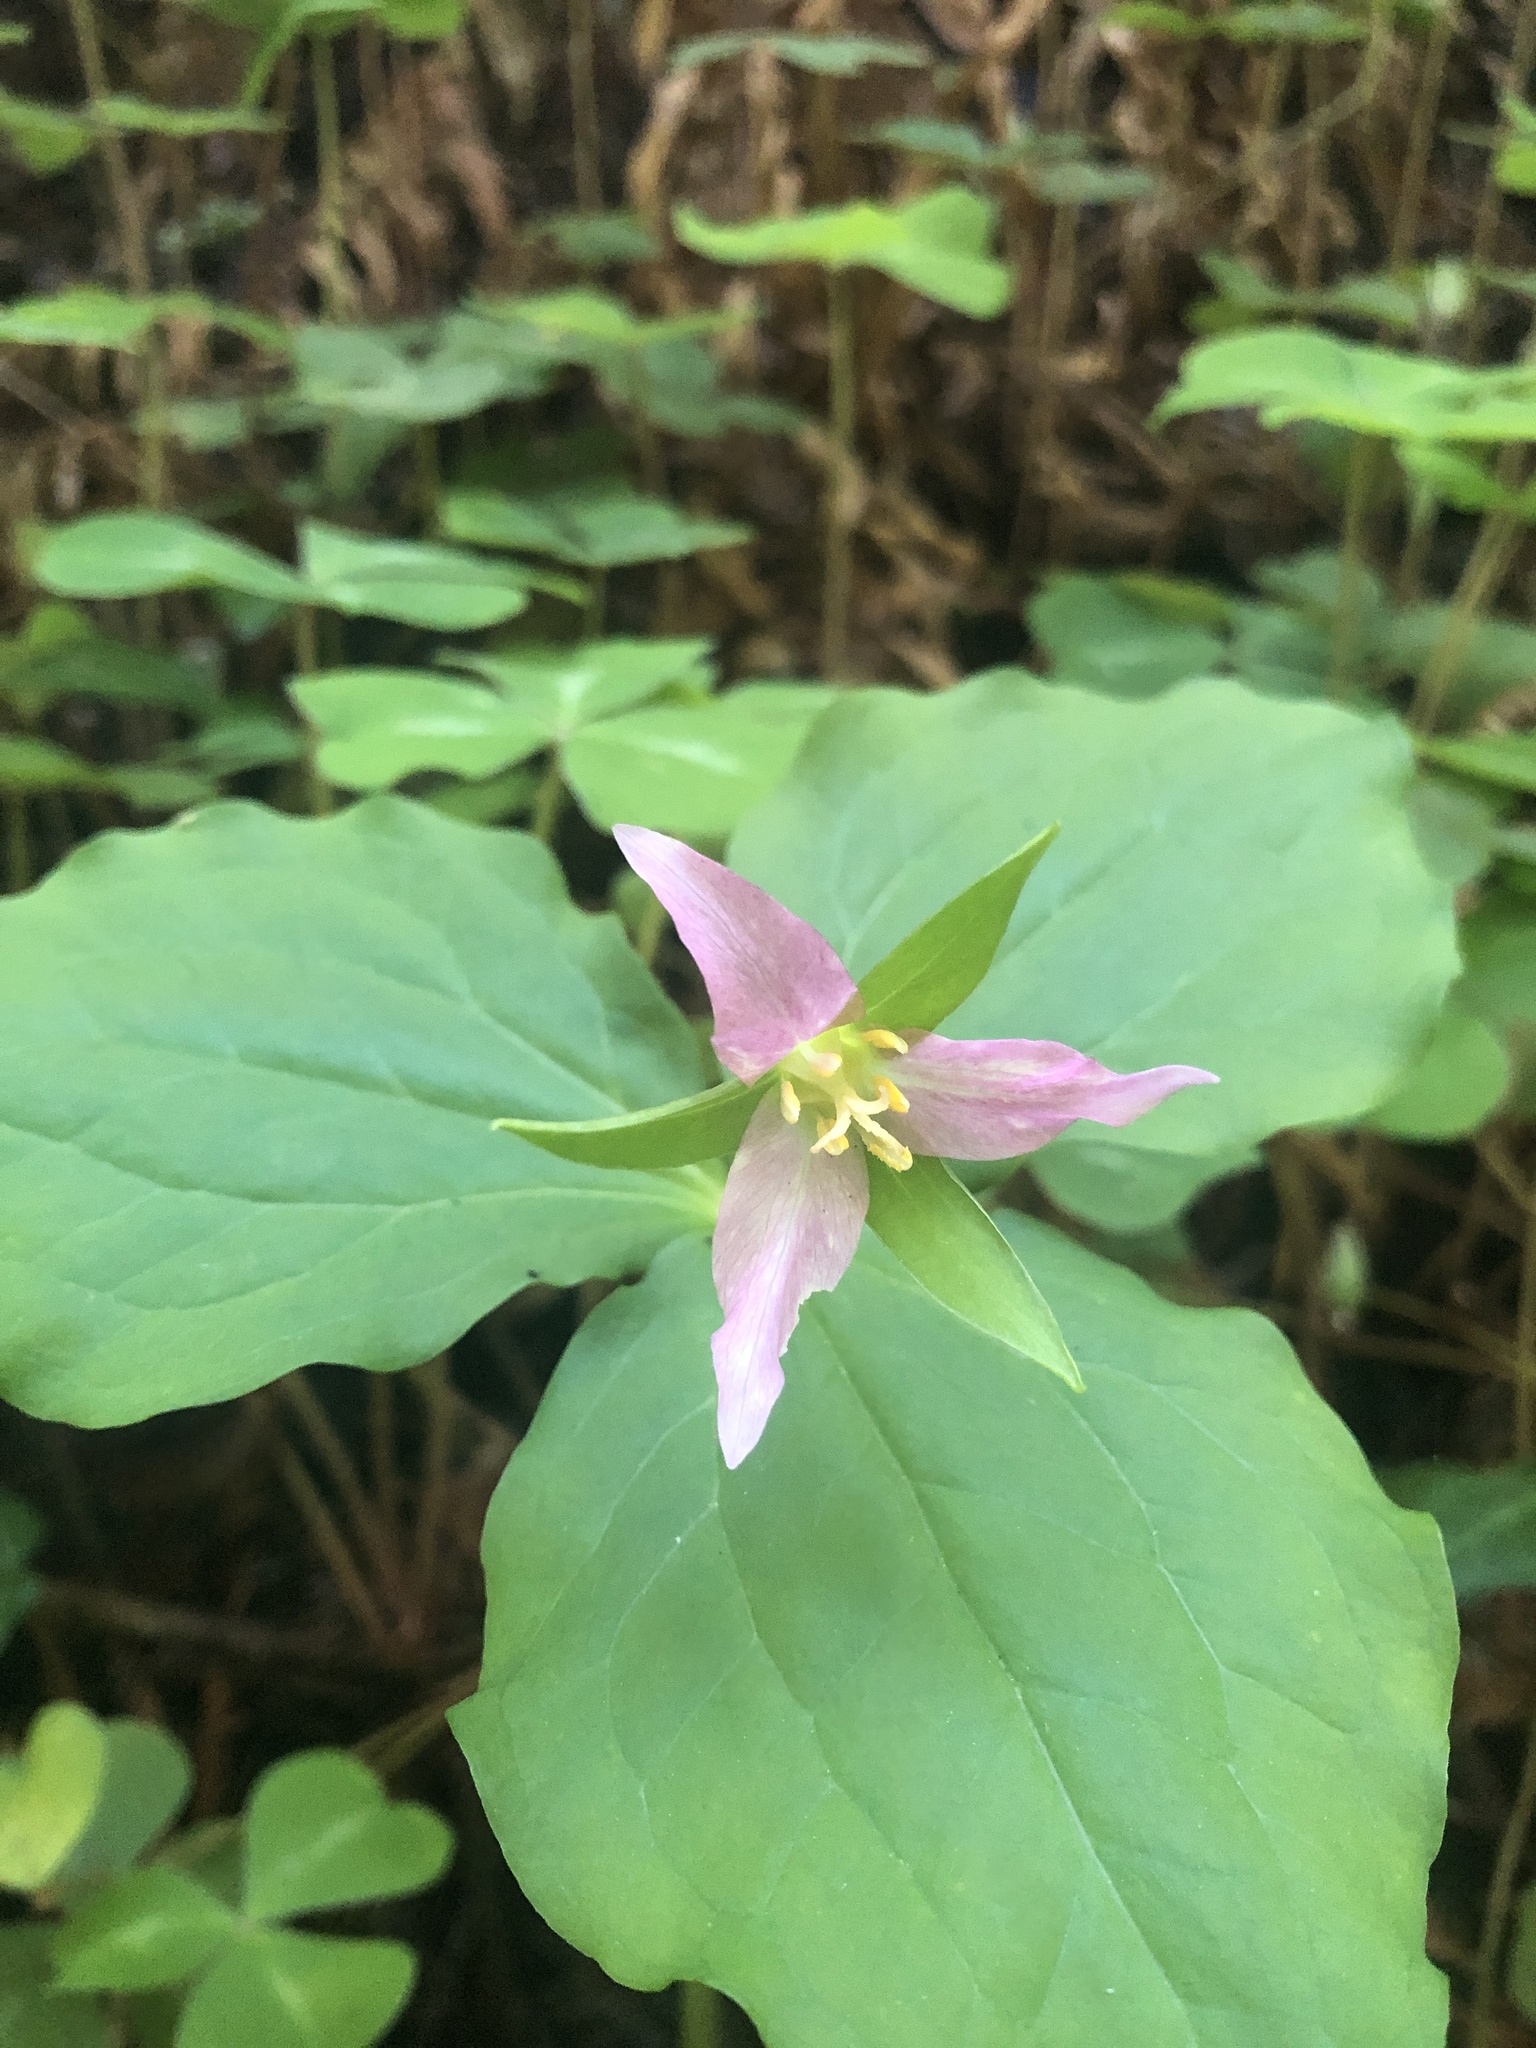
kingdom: Plantae
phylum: Tracheophyta
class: Liliopsida
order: Liliales
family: Melanthiaceae
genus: Trillium
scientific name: Trillium ovatum
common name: Pacific trillium
